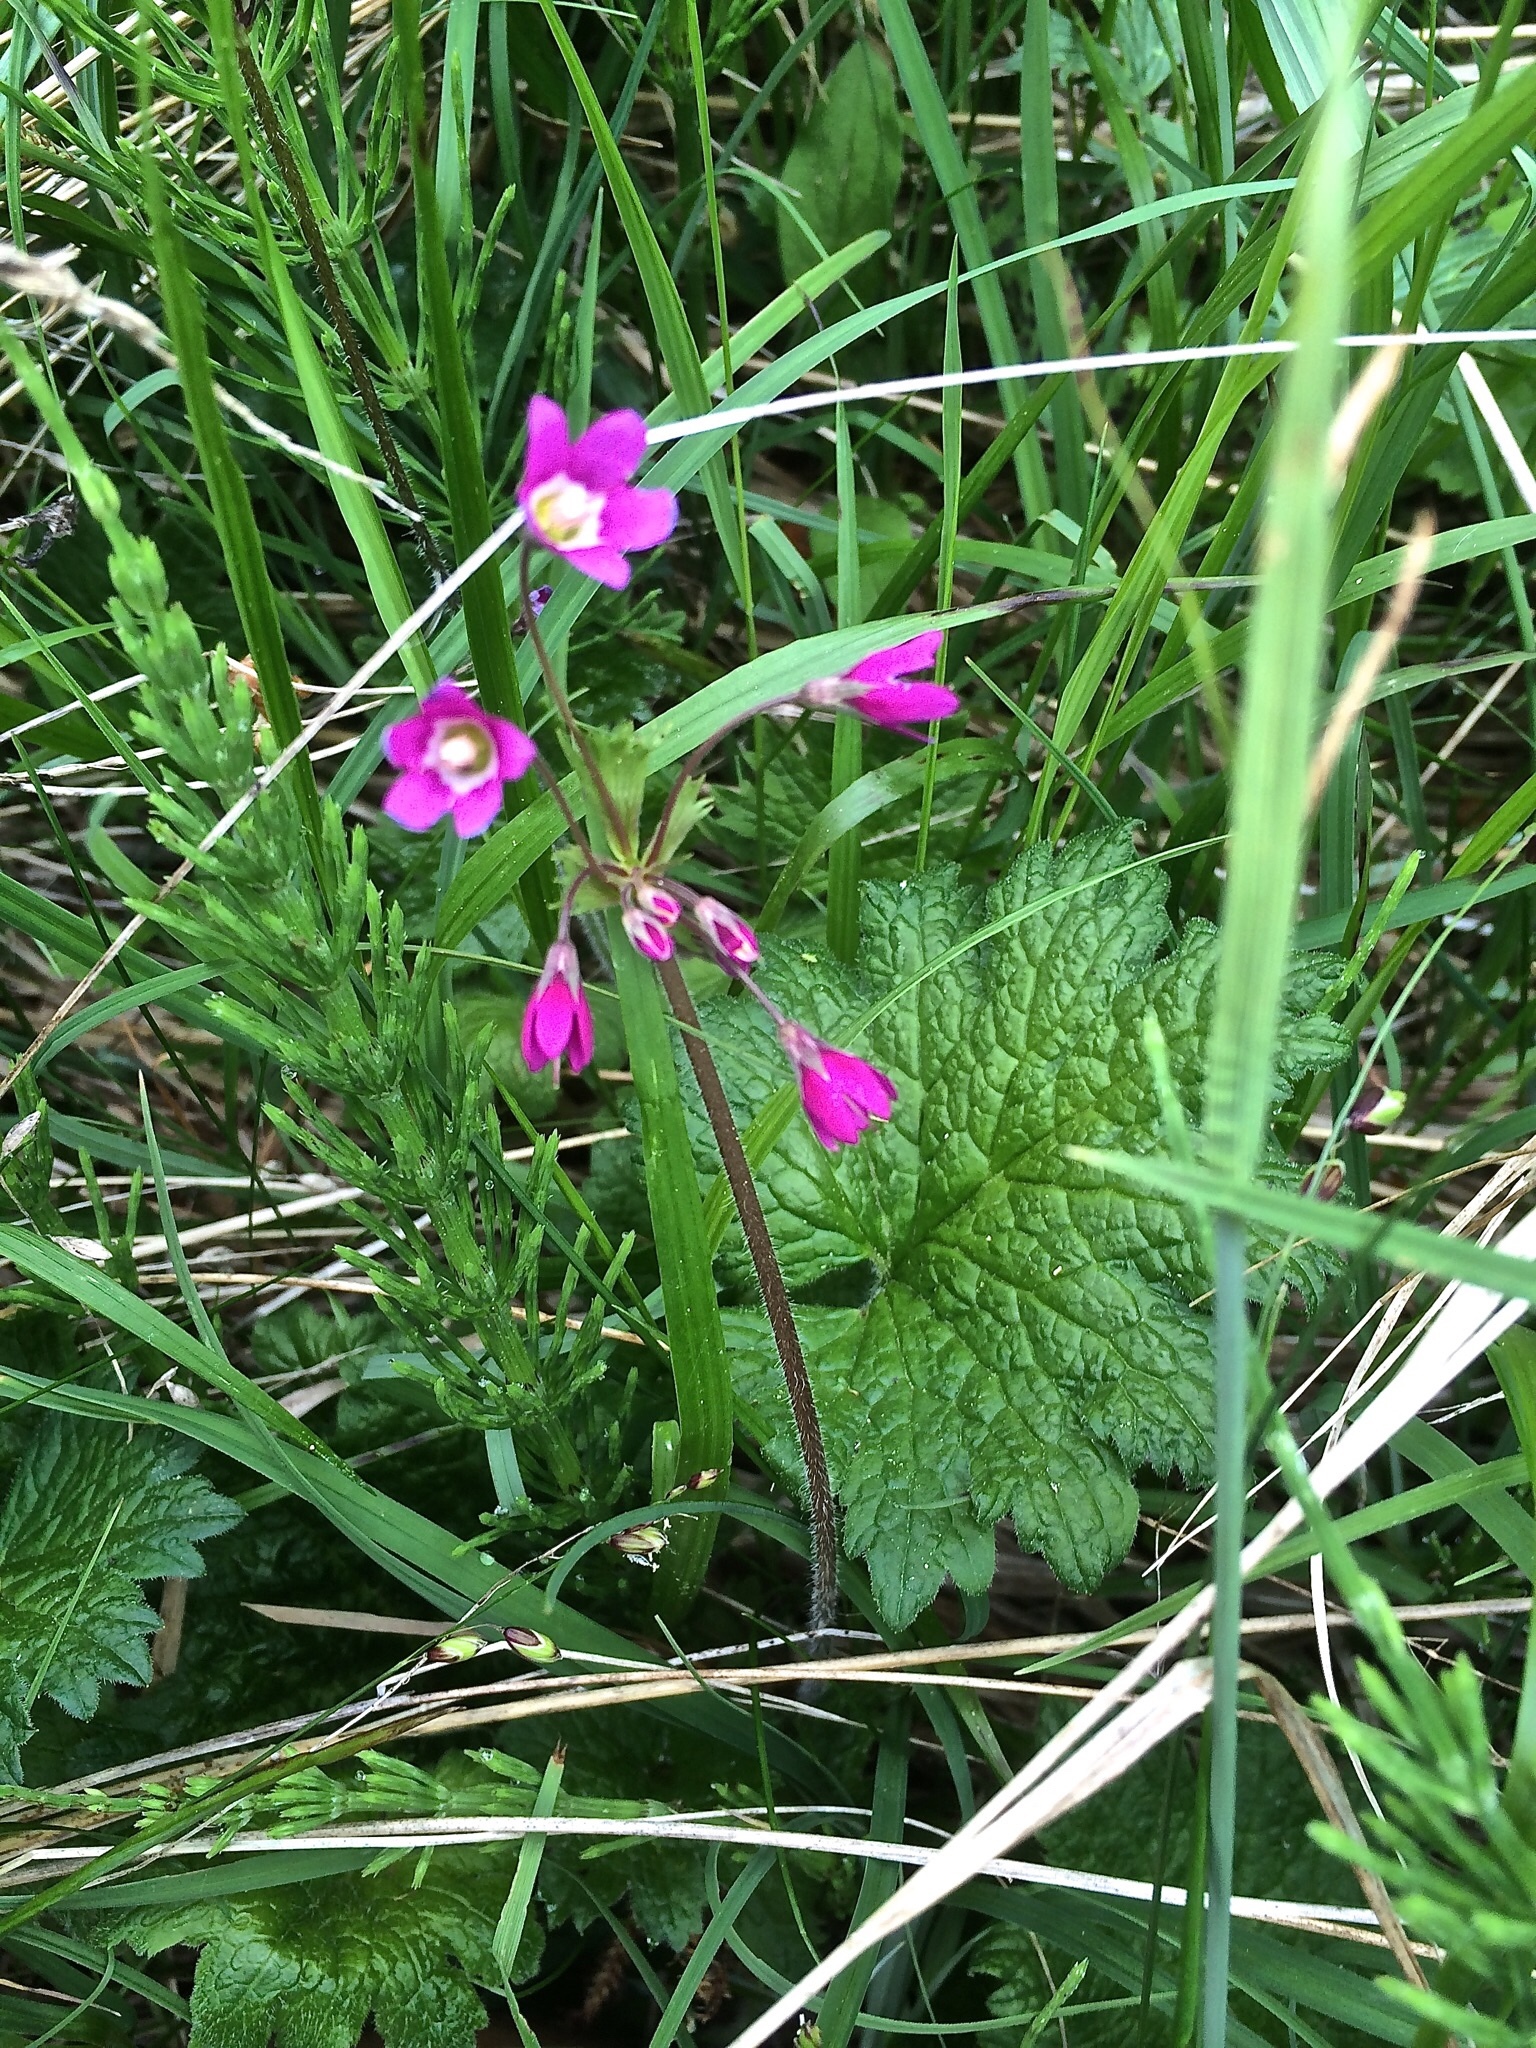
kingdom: Plantae
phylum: Tracheophyta
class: Magnoliopsida
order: Ericales
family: Primulaceae
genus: Primula
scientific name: Primula matthioli
